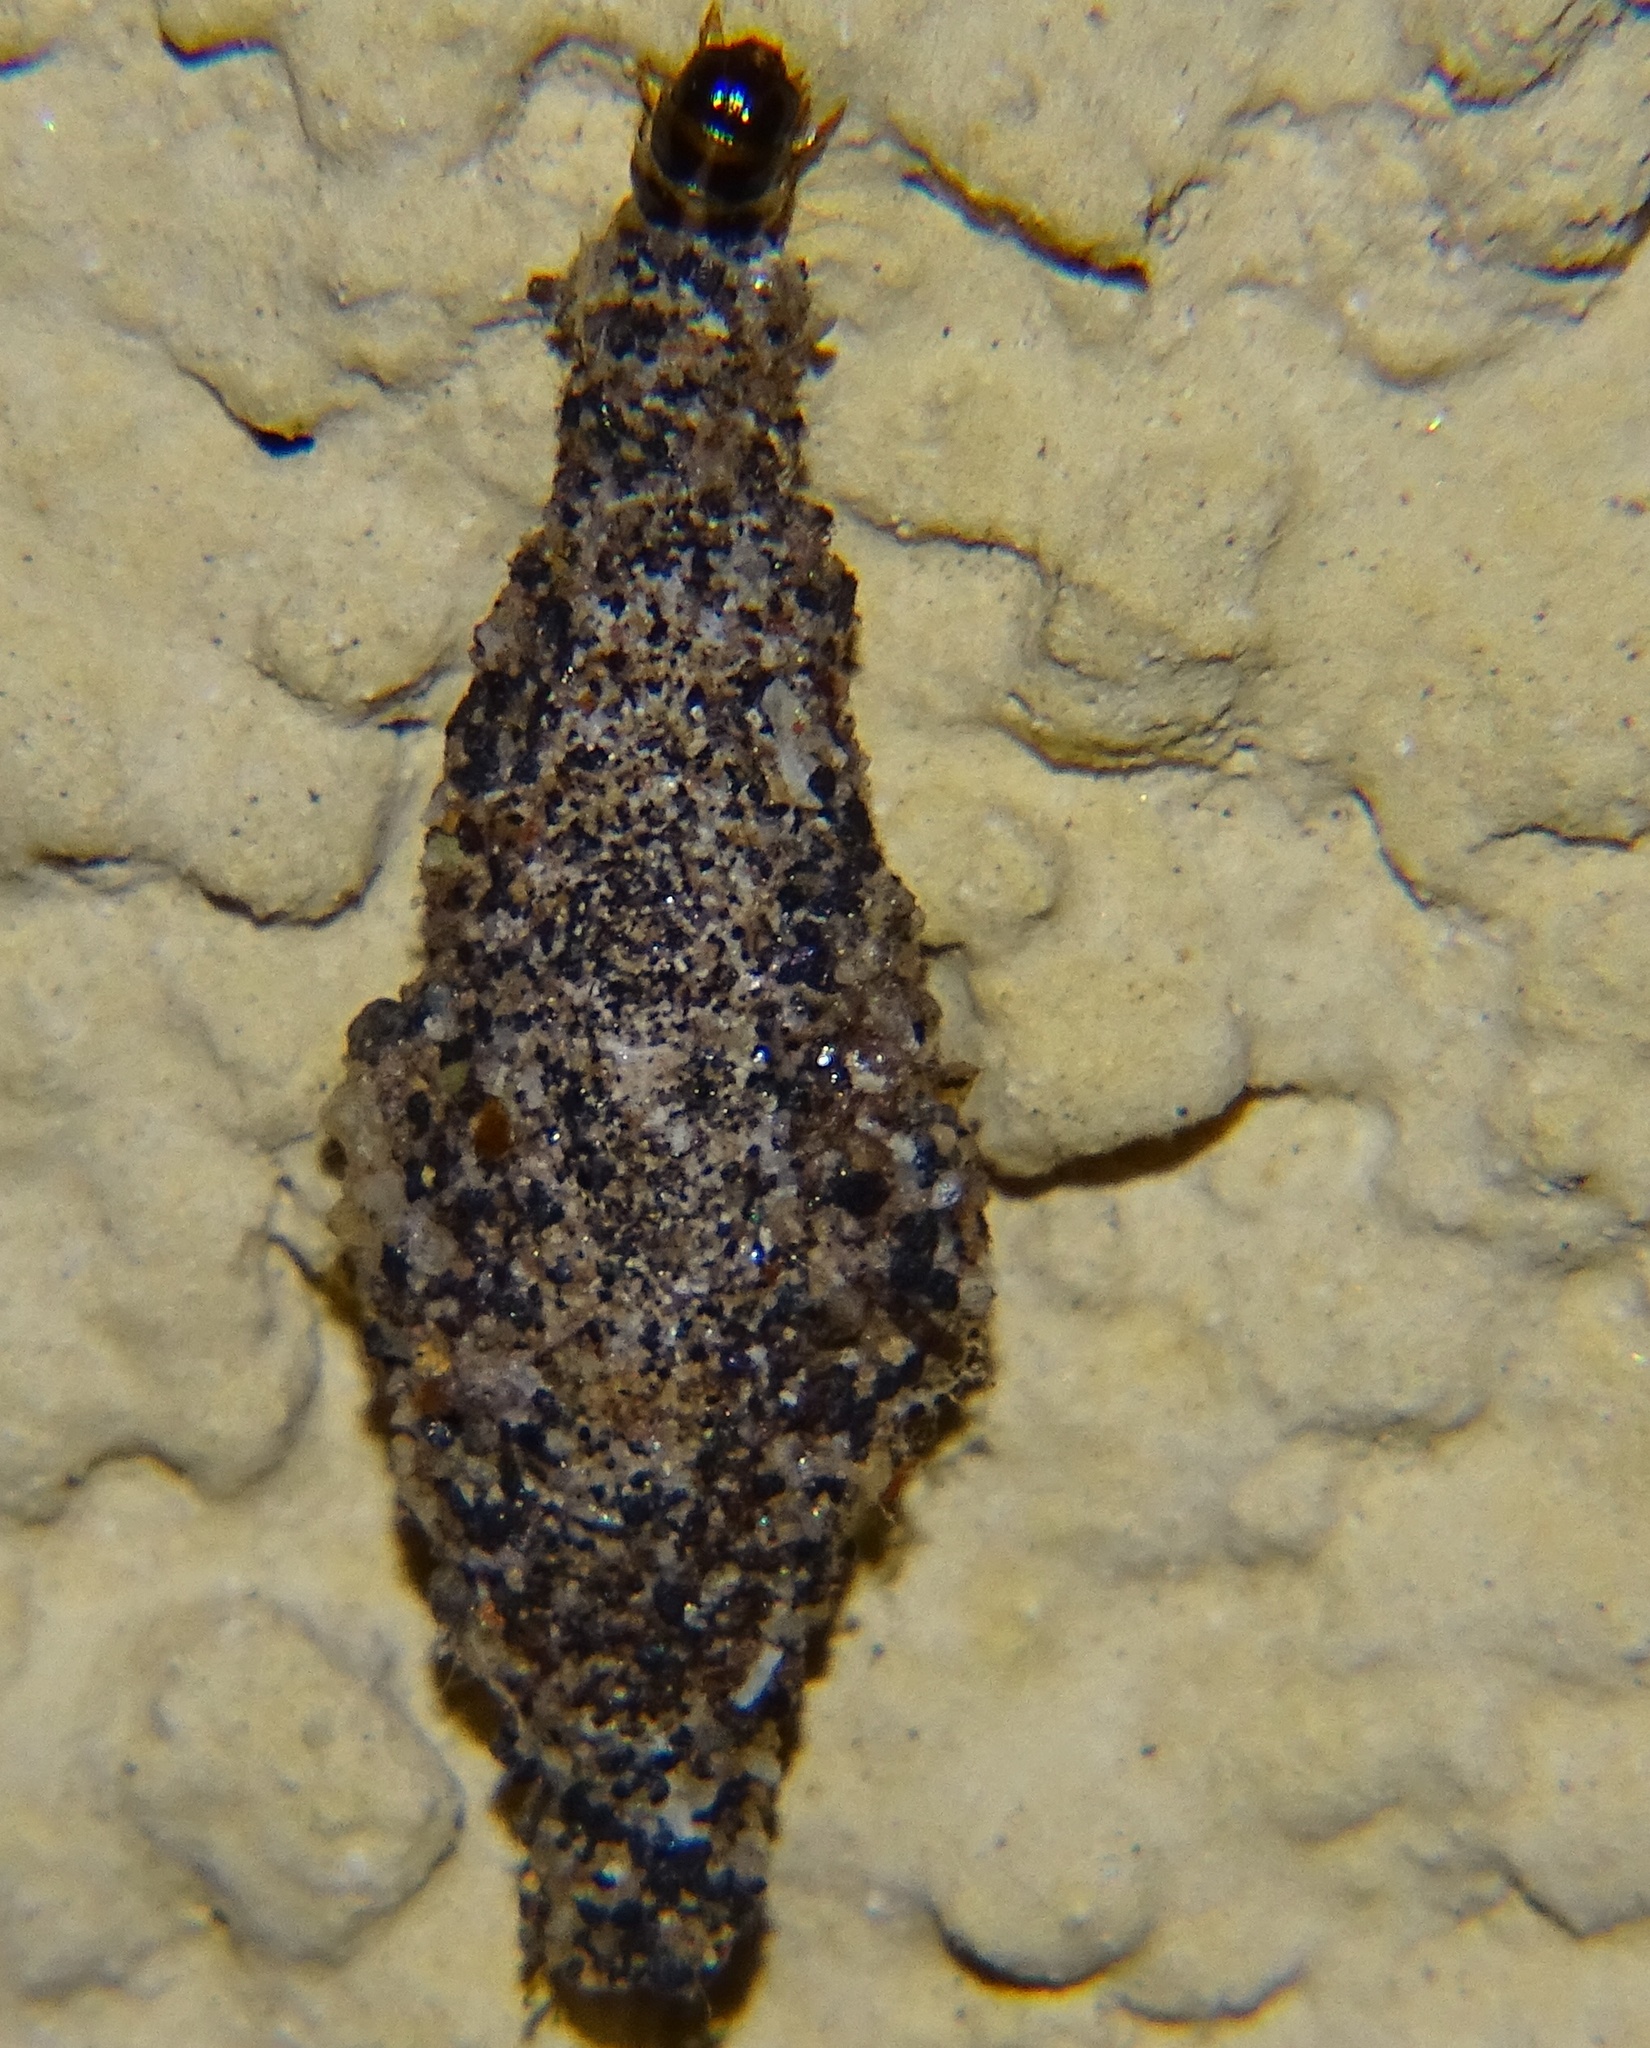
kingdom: Animalia
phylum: Arthropoda
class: Insecta
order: Lepidoptera
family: Tineidae
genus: Phereoeca
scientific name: Phereoeca uterella
